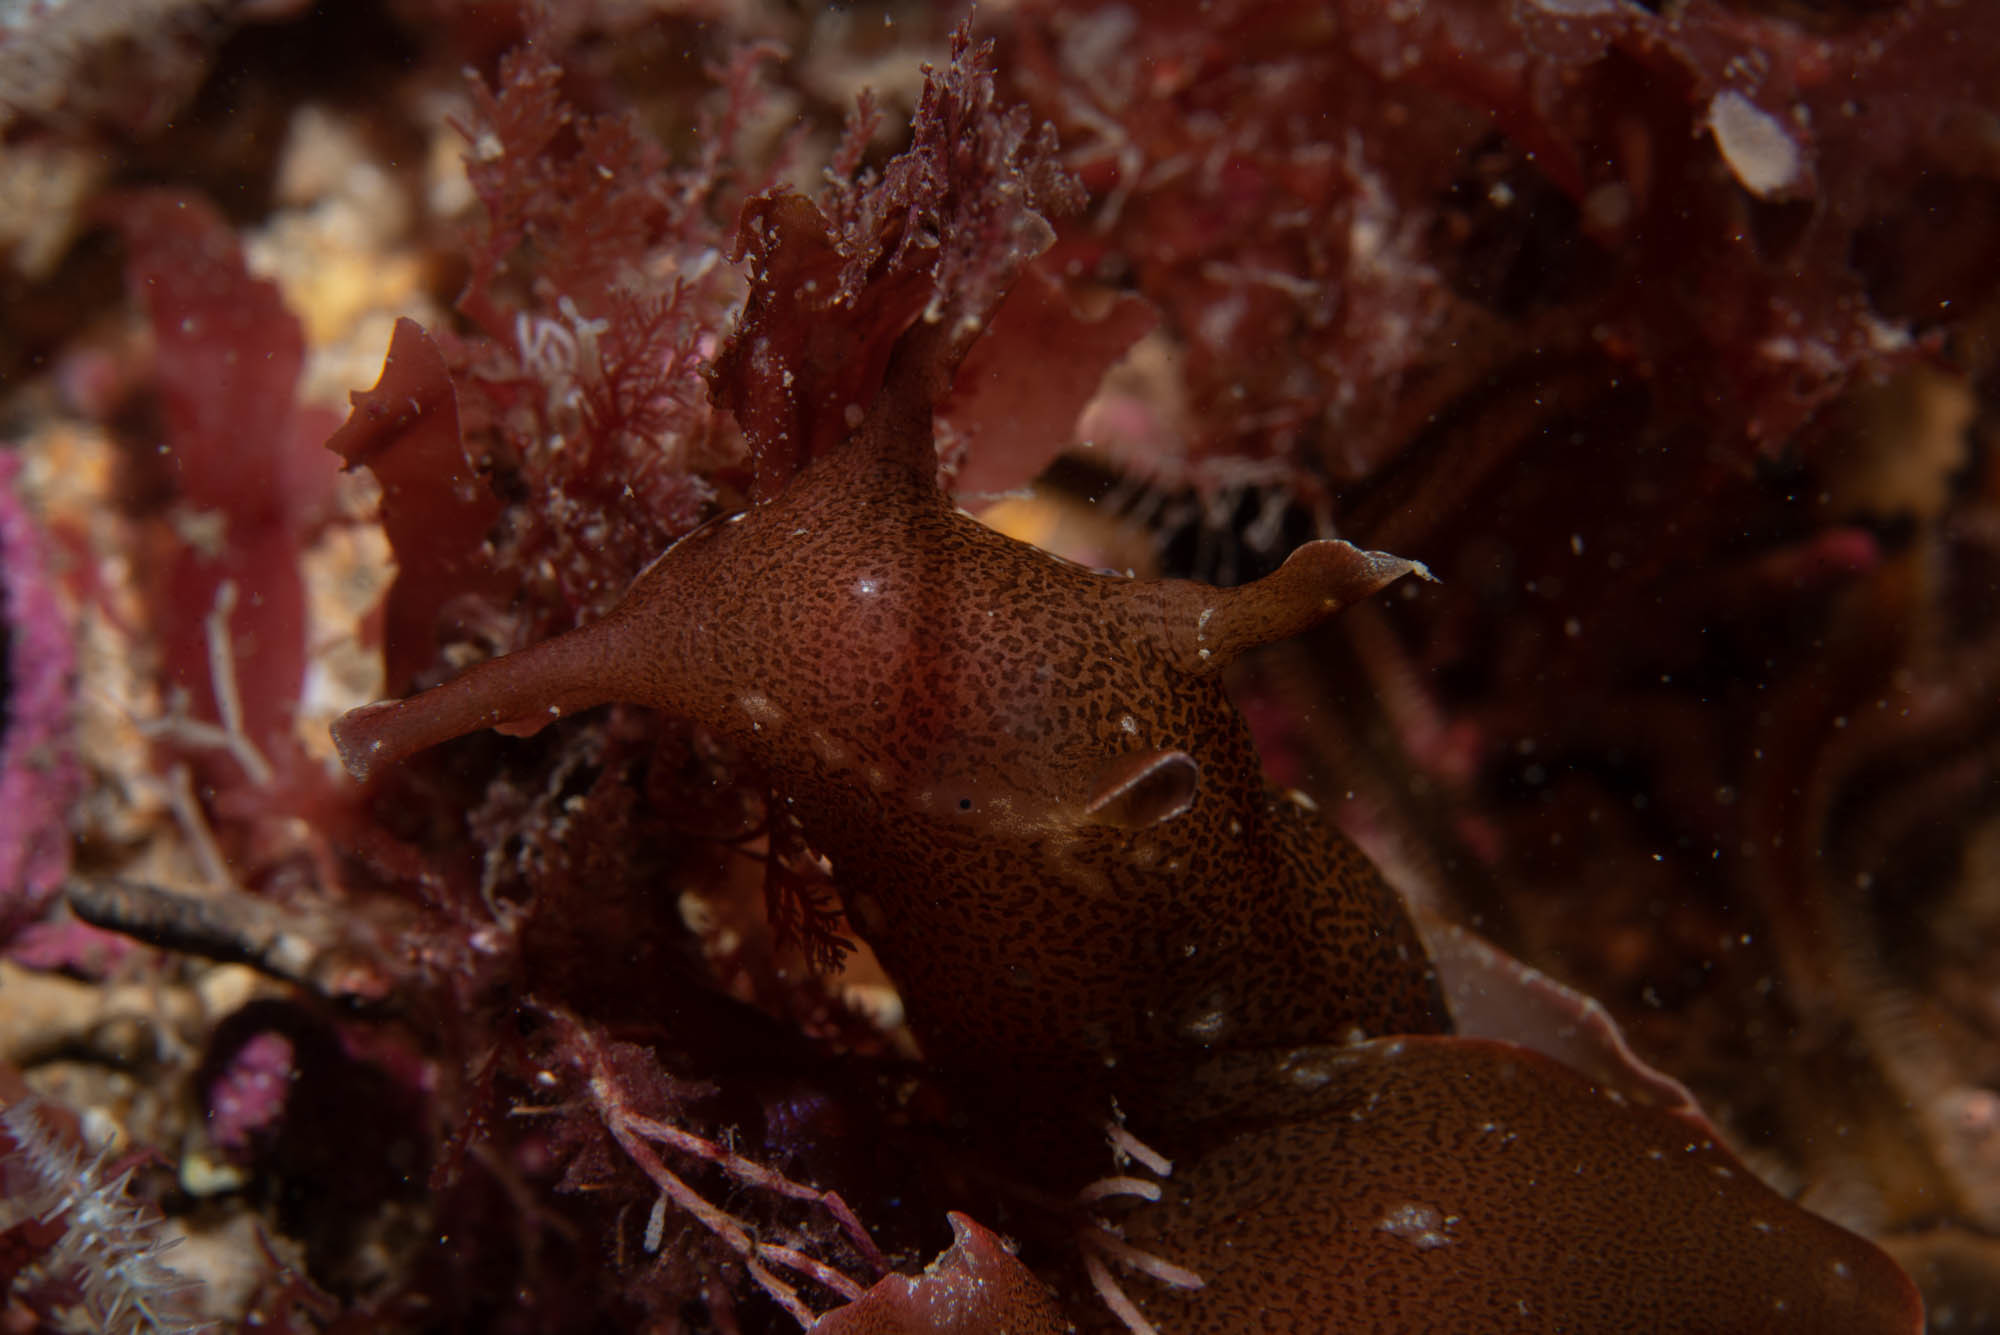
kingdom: Animalia
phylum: Mollusca
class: Gastropoda
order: Aplysiida
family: Aplysiidae
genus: Aplysia
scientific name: Aplysia punctata
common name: Common sea hare
